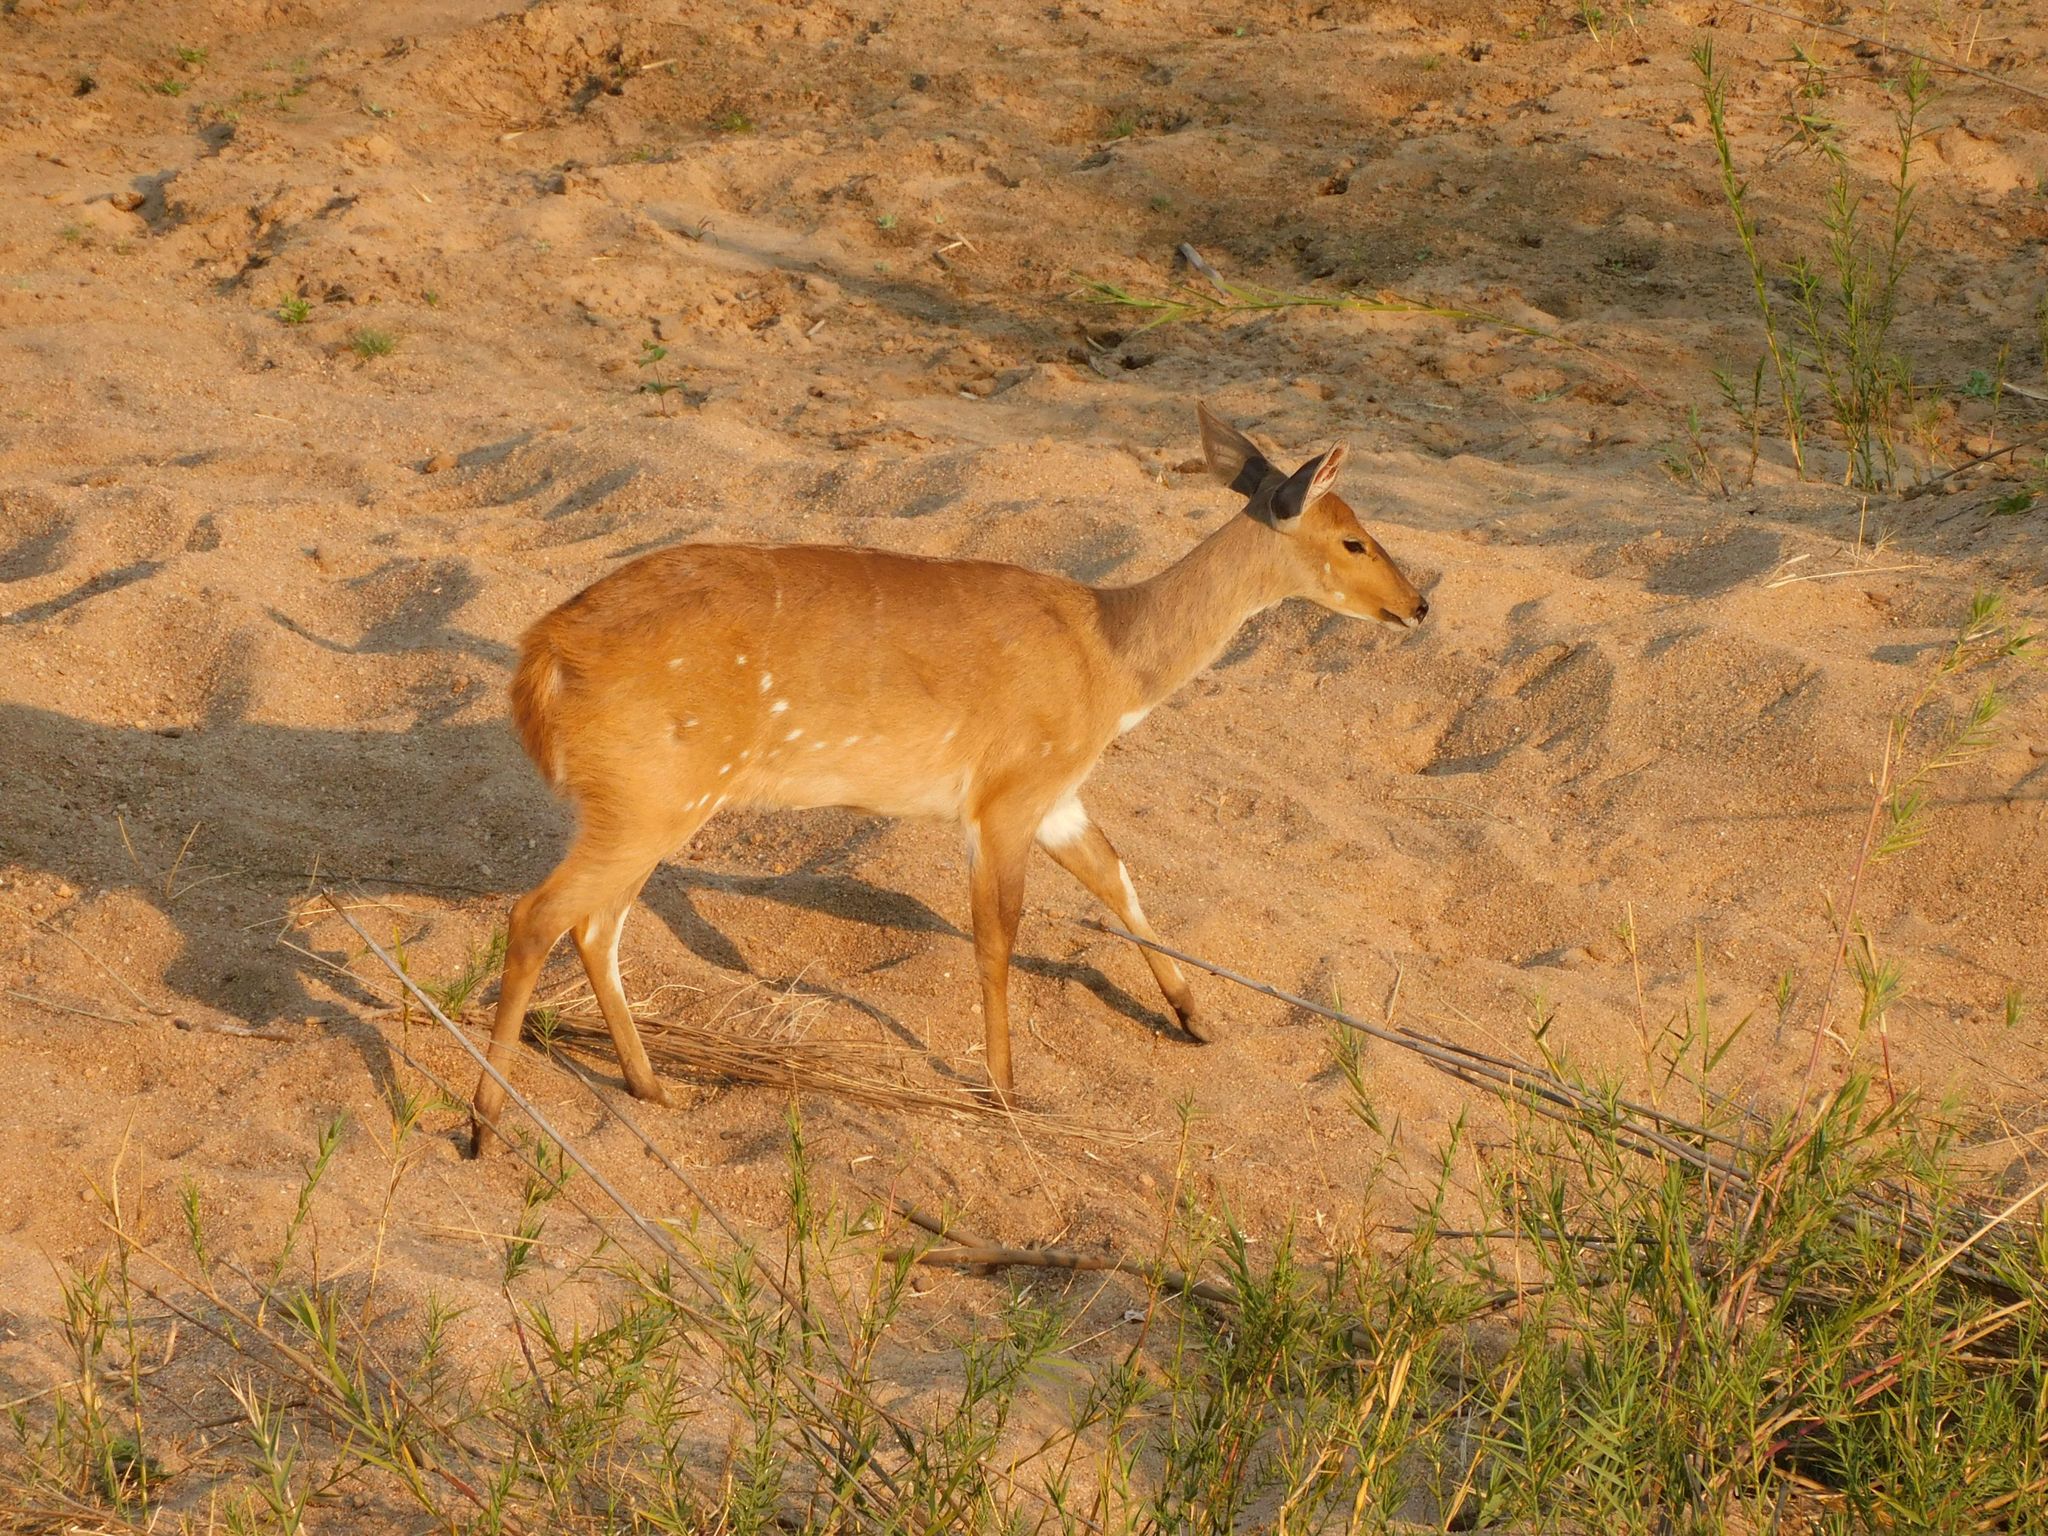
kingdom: Animalia
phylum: Chordata
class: Mammalia
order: Artiodactyla
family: Bovidae
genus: Tragelaphus
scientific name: Tragelaphus scriptus
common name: Bushbuck
